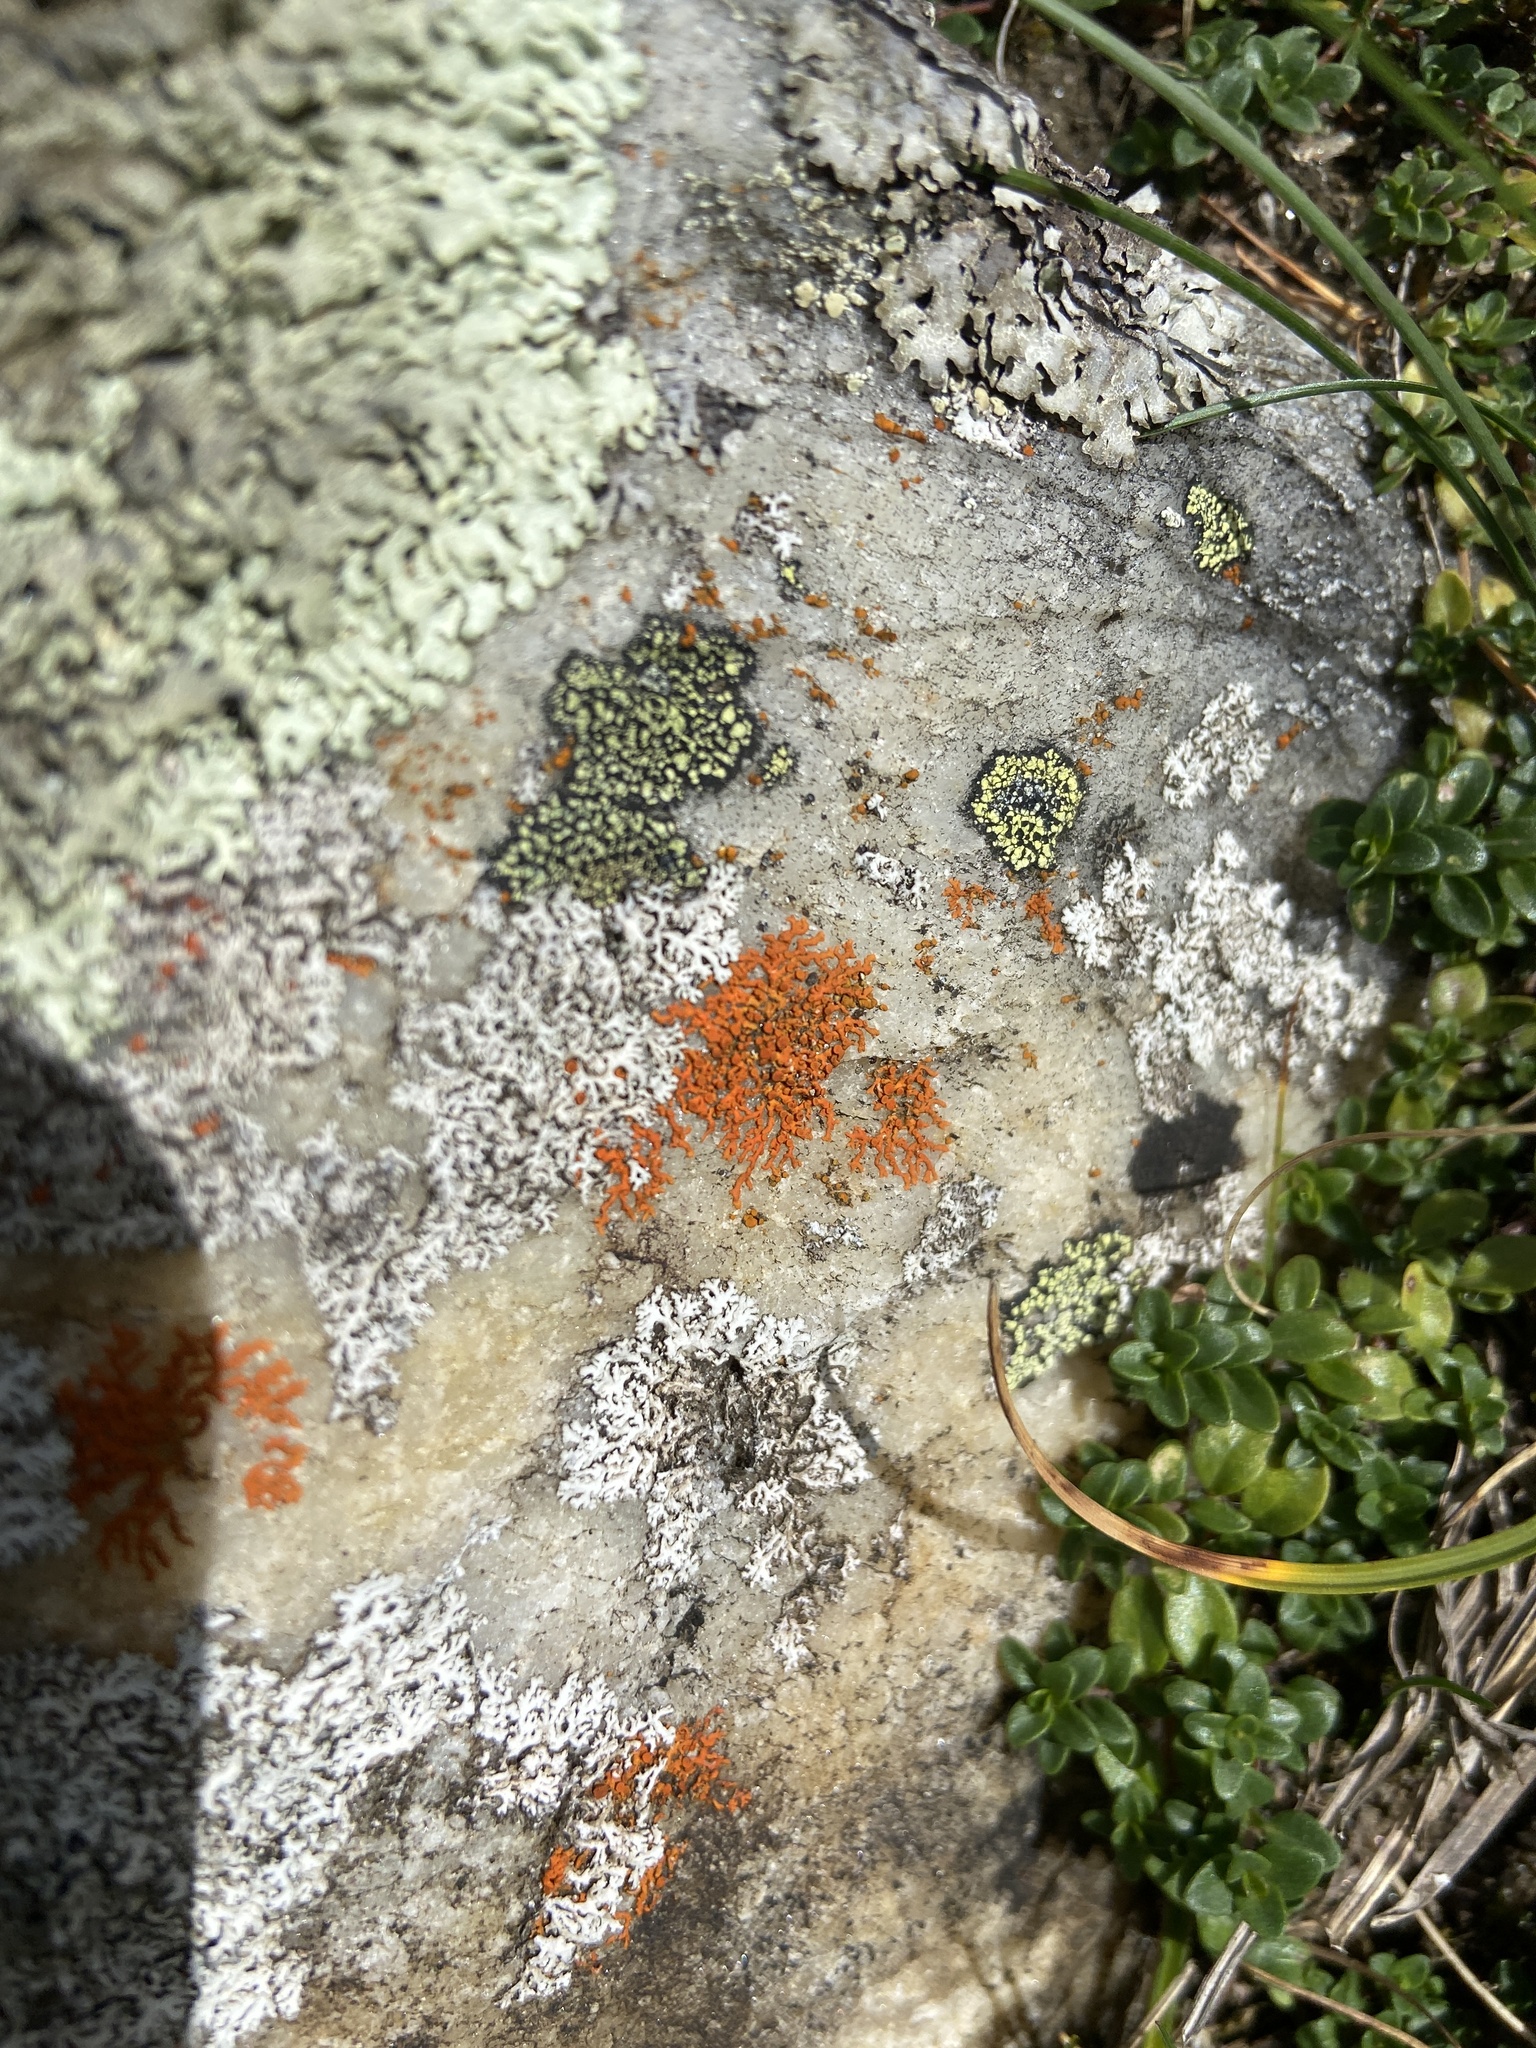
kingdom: Fungi
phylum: Ascomycota
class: Lecanoromycetes
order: Teloschistales
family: Teloschistaceae
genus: Xanthoria
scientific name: Xanthoria elegans
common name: Elegant sunburst lichen
